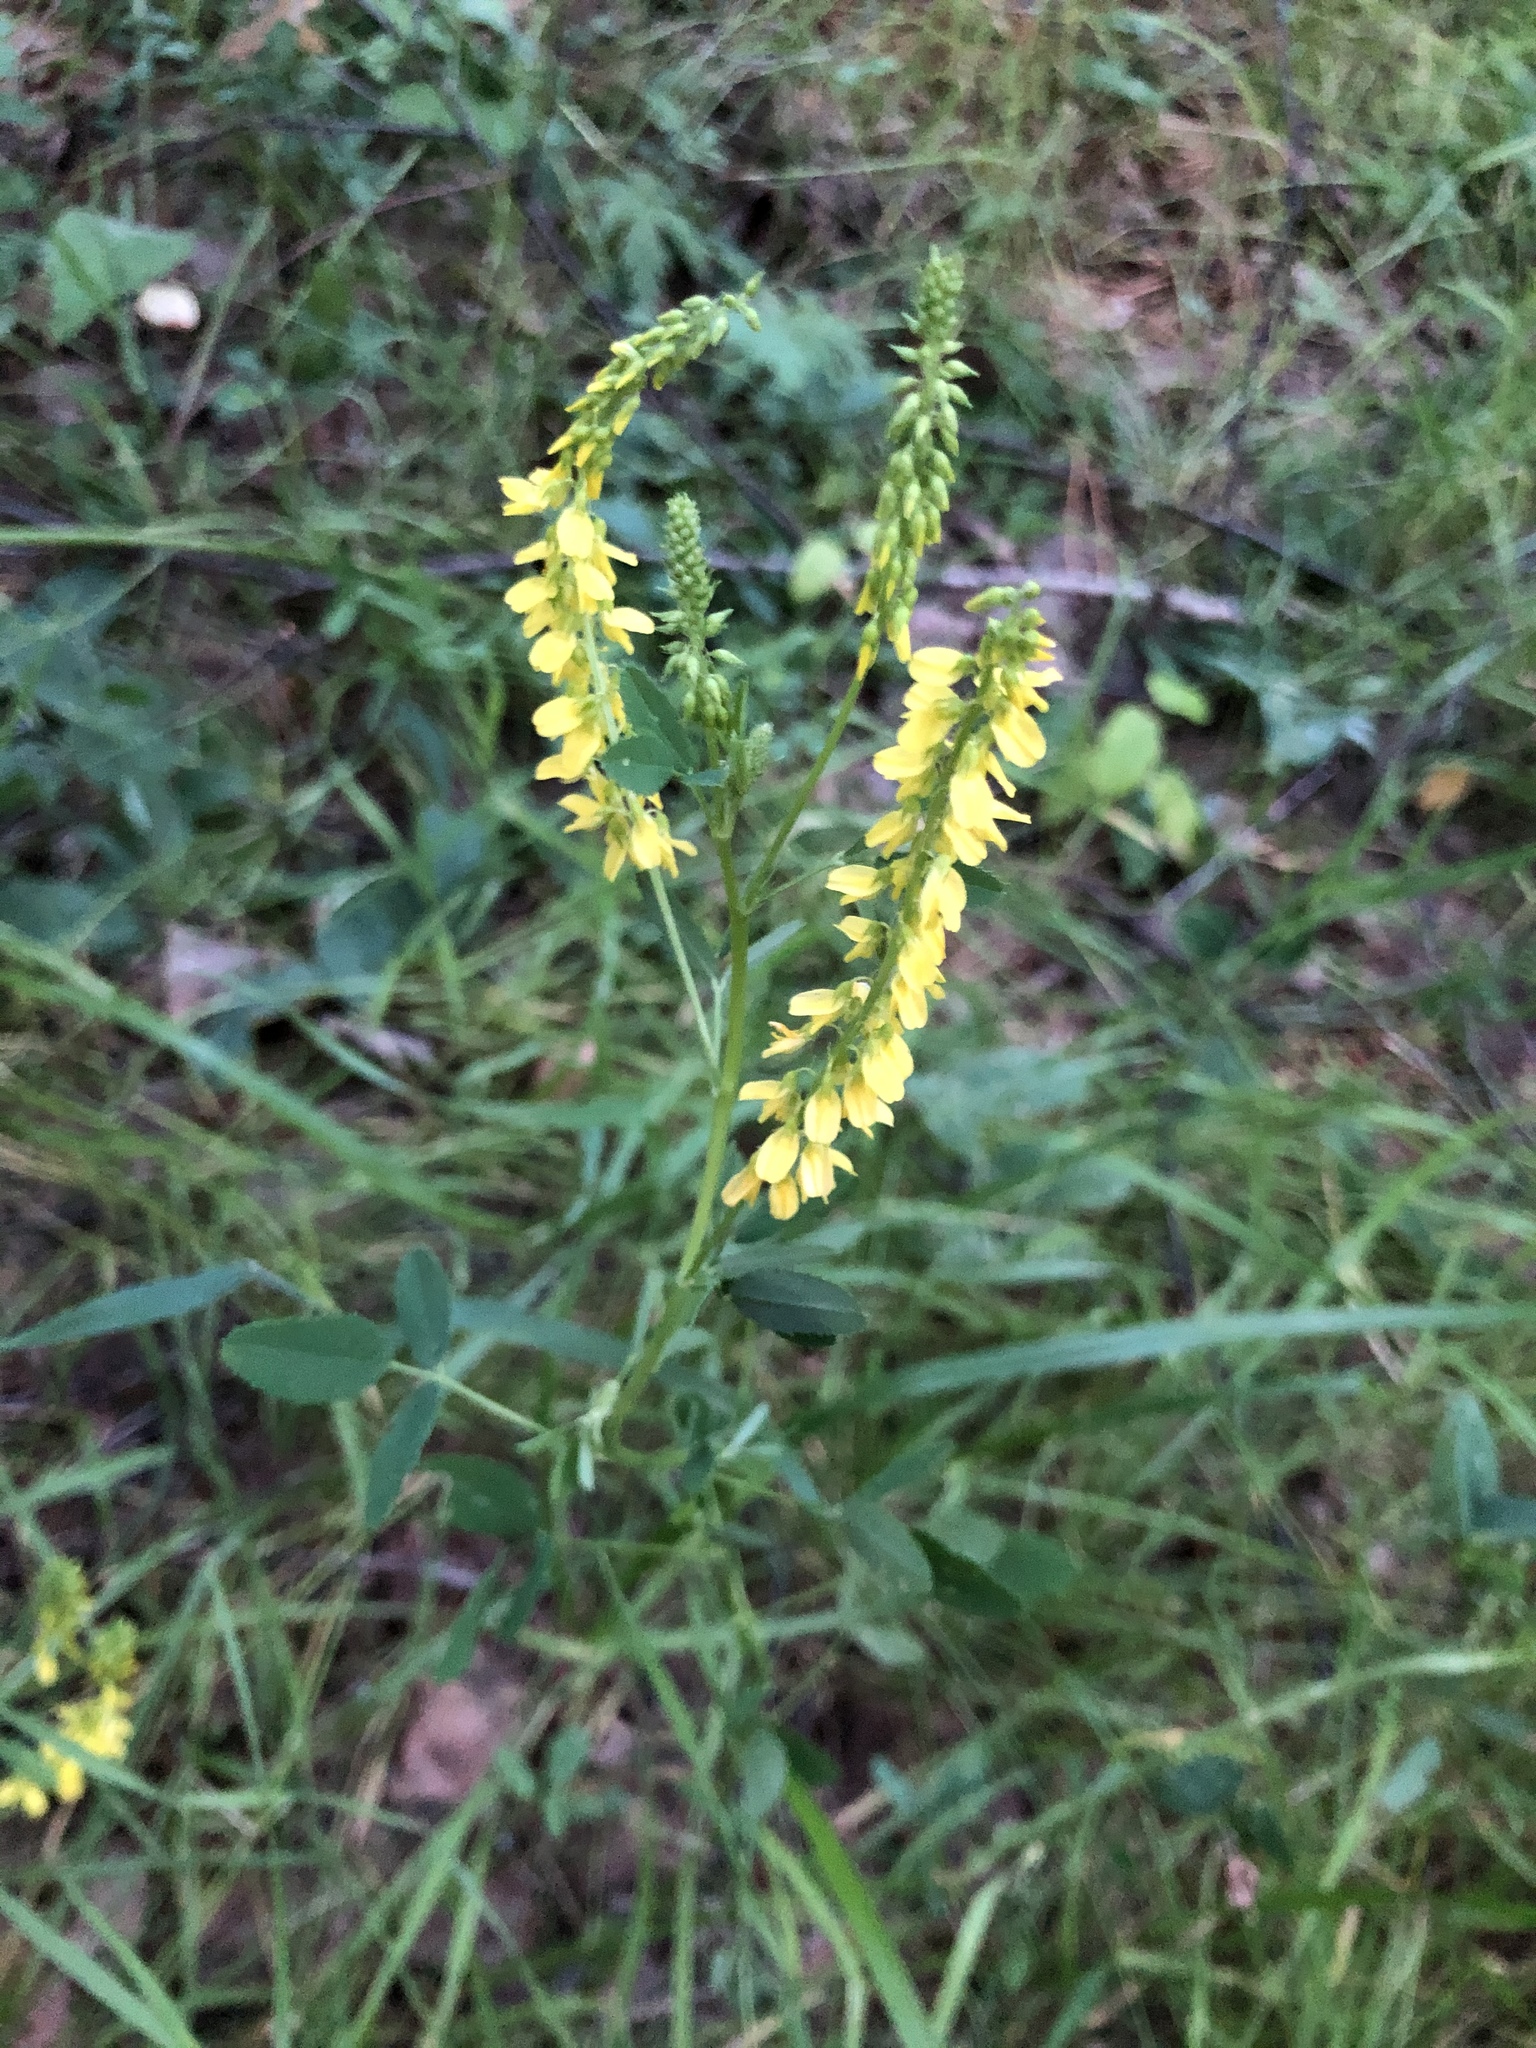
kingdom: Plantae
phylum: Tracheophyta
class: Magnoliopsida
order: Fabales
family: Fabaceae
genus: Melilotus
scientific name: Melilotus officinalis
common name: Sweetclover
